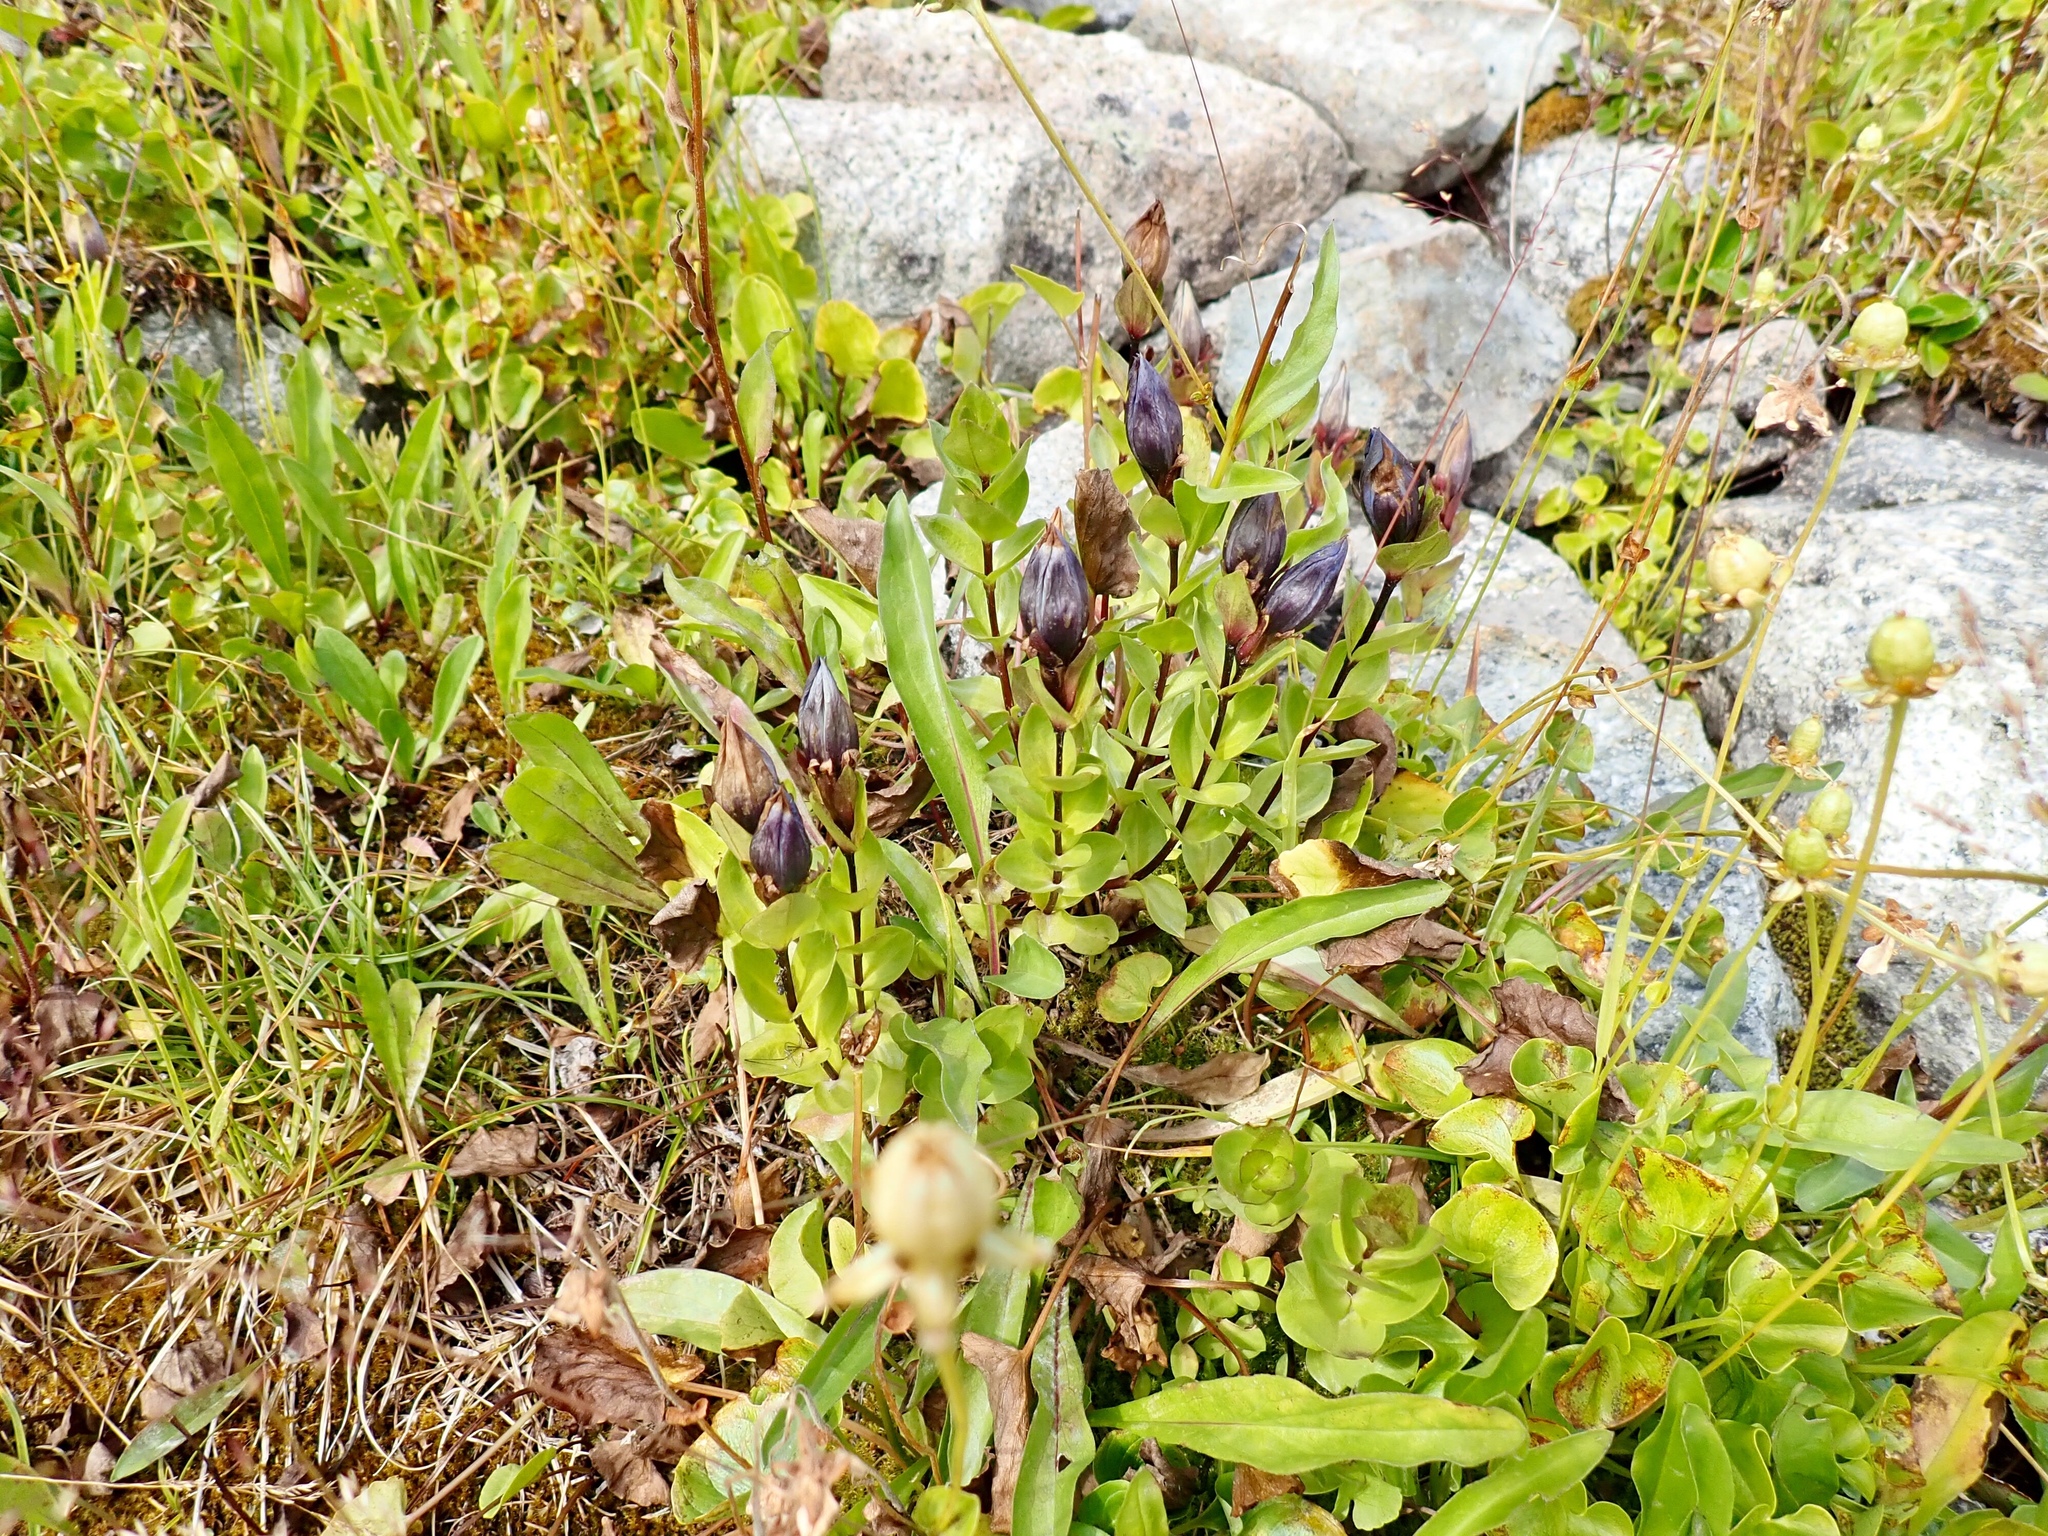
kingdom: Plantae
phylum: Tracheophyta
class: Magnoliopsida
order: Gentianales
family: Gentianaceae
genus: Gentiana
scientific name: Gentiana calycosa
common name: Rainier pleated gentian
